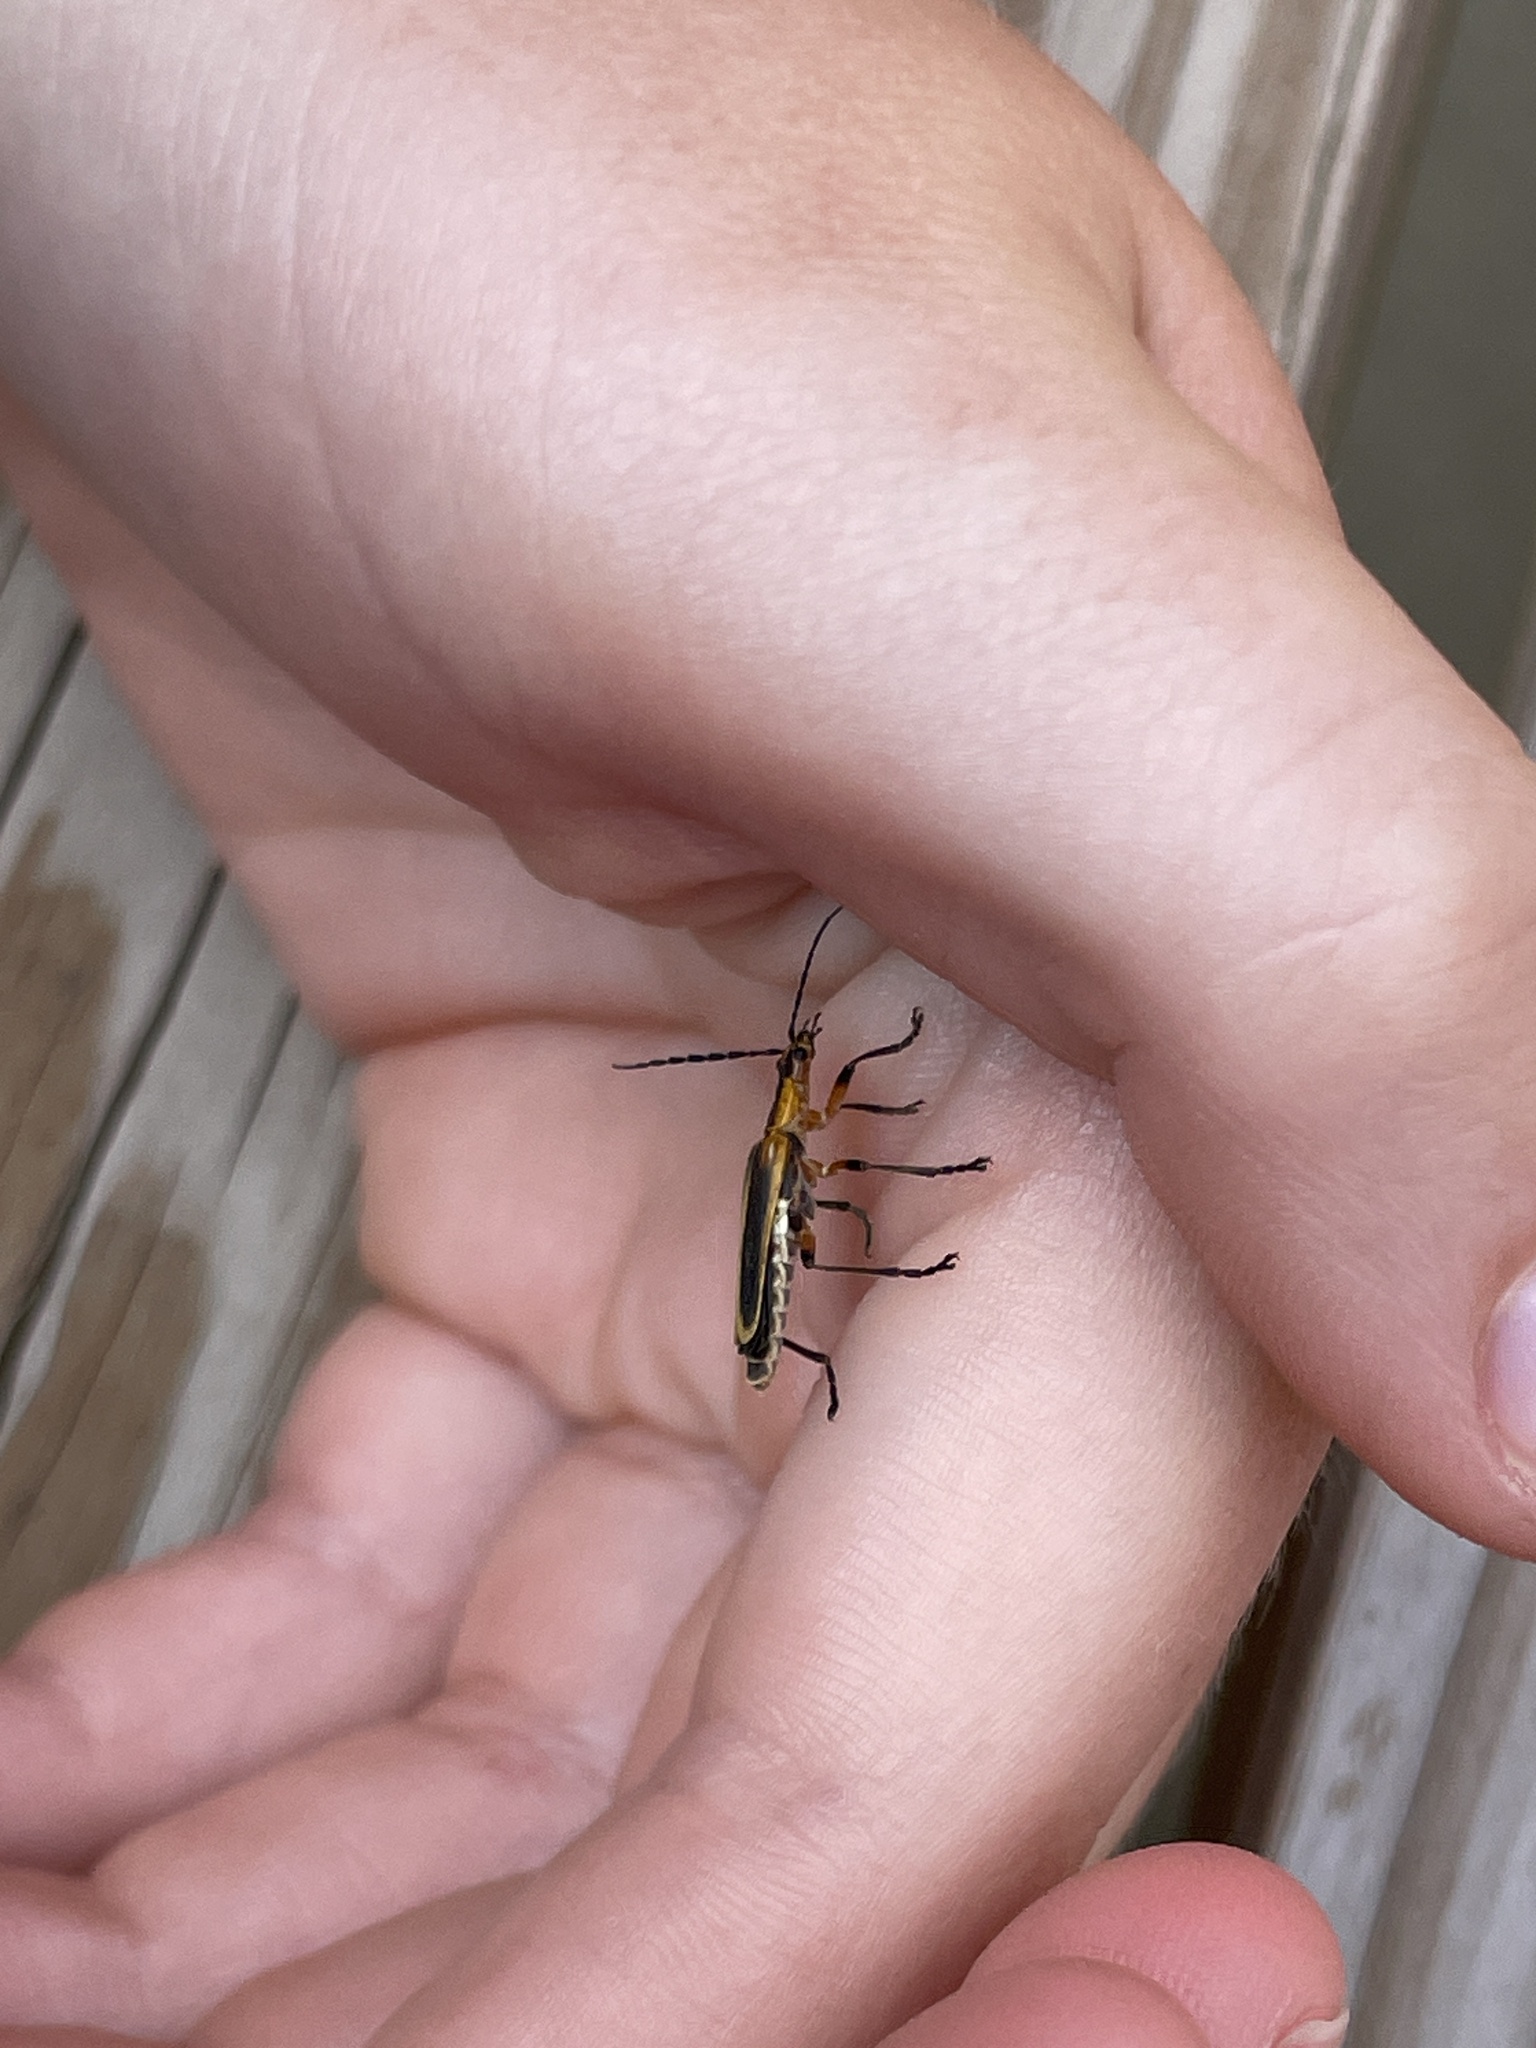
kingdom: Animalia
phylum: Arthropoda
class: Insecta
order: Coleoptera
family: Cantharidae
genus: Chauliognathus
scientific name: Chauliognathus marginatus
